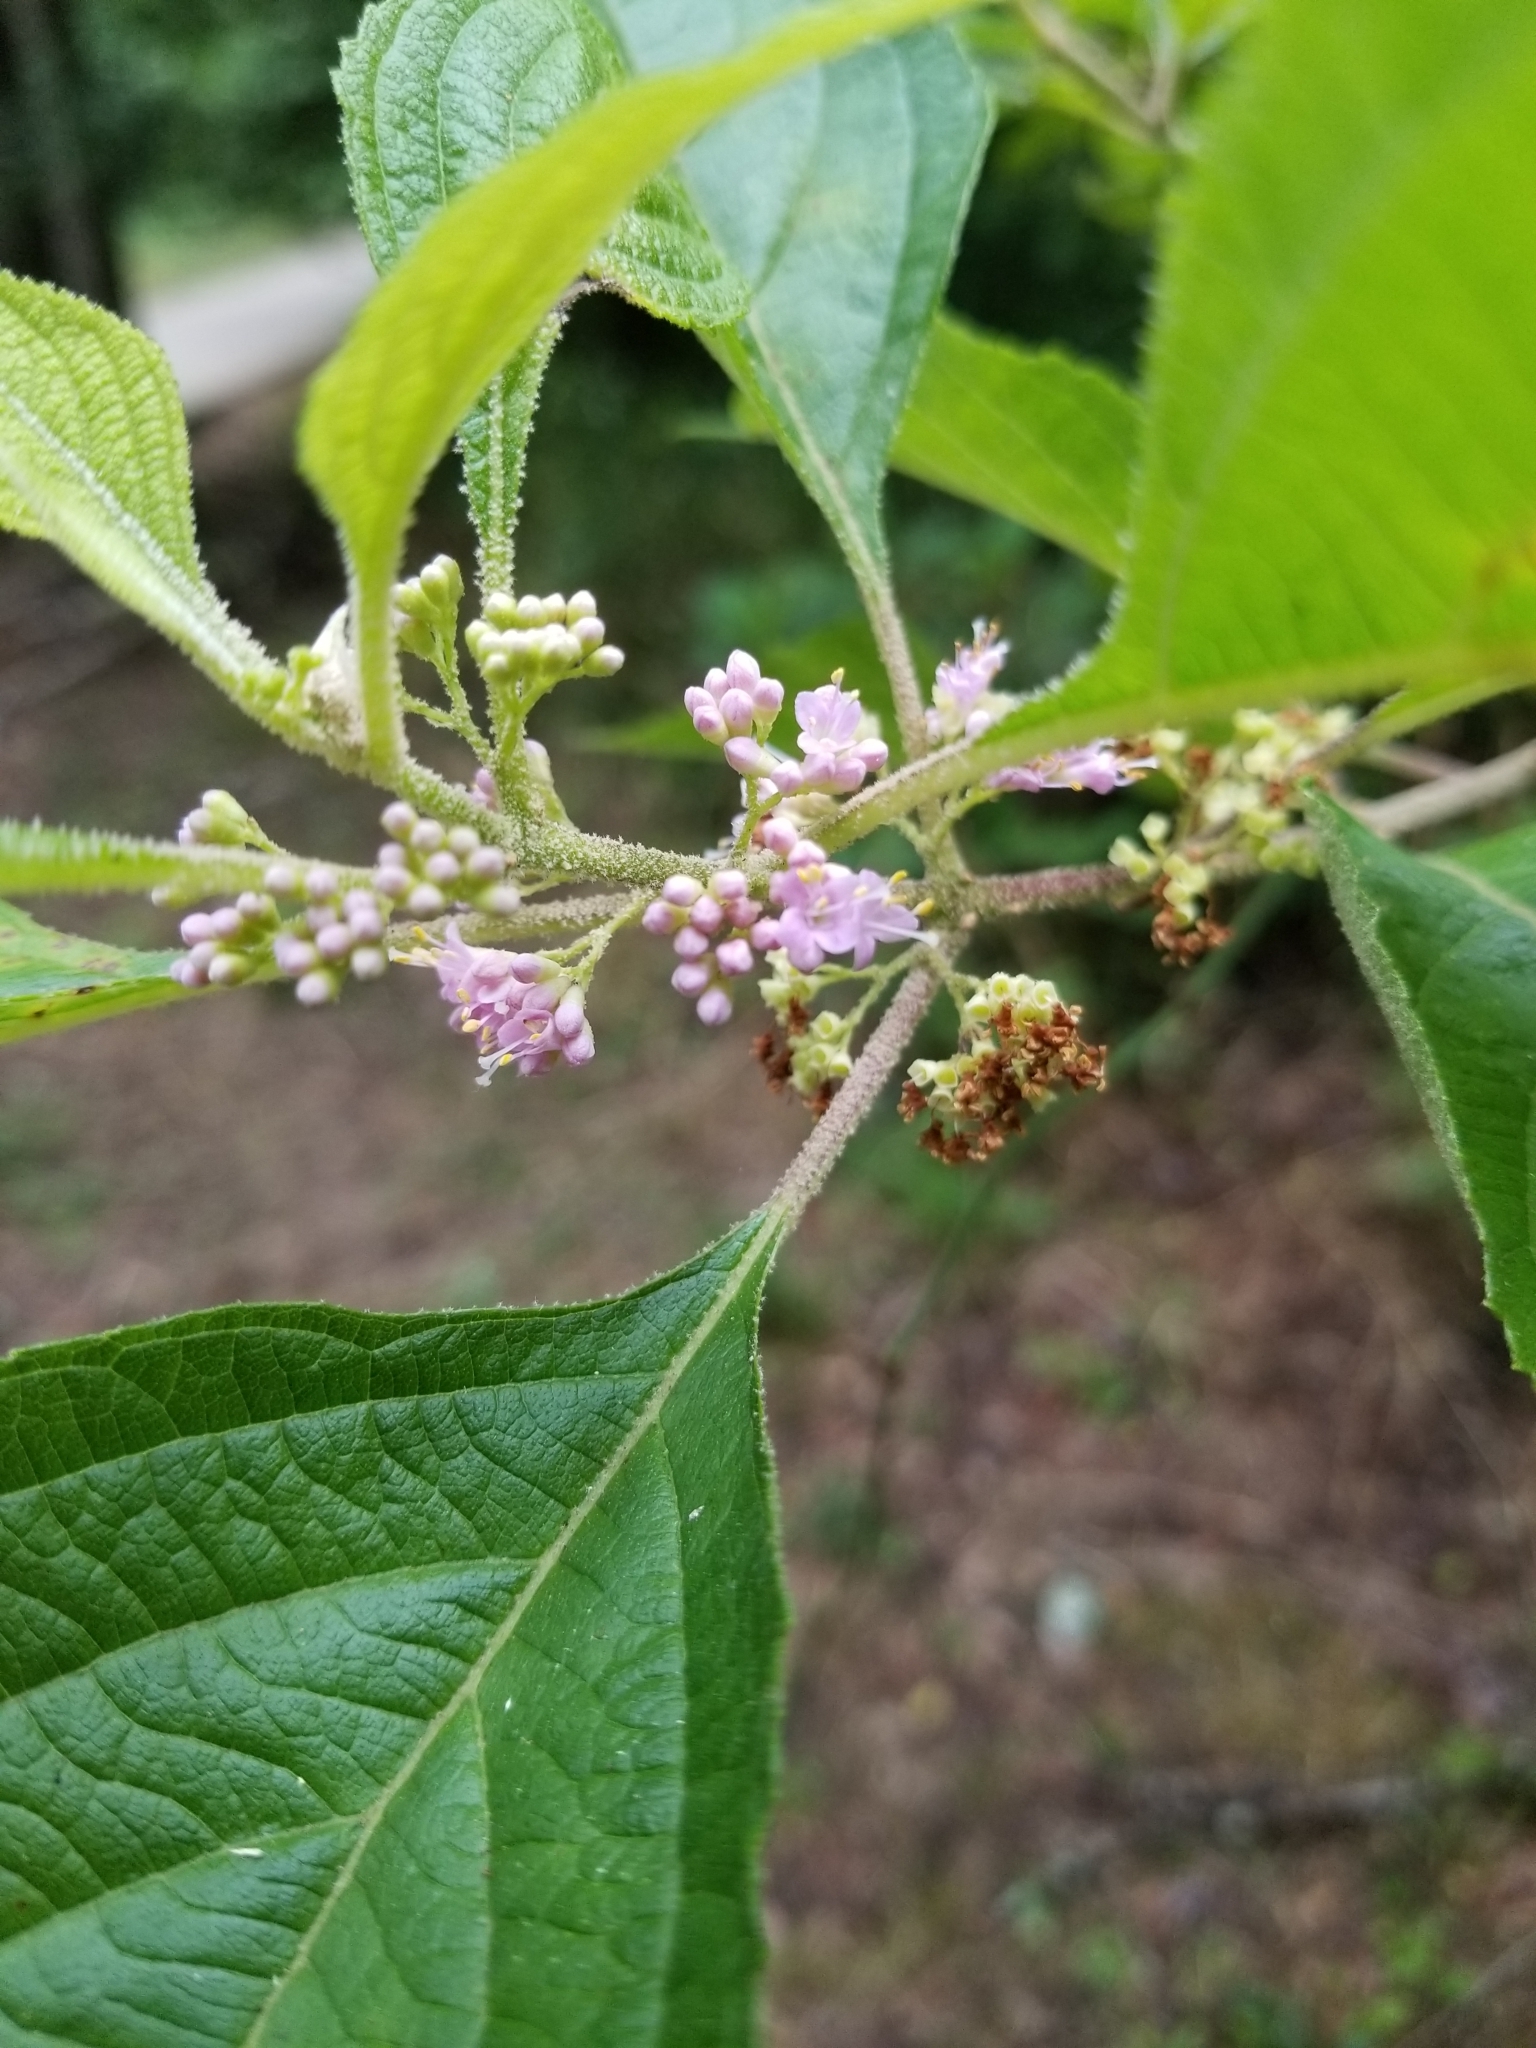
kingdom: Plantae
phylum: Tracheophyta
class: Magnoliopsida
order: Lamiales
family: Lamiaceae
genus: Callicarpa
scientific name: Callicarpa americana
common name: American beautyberry
